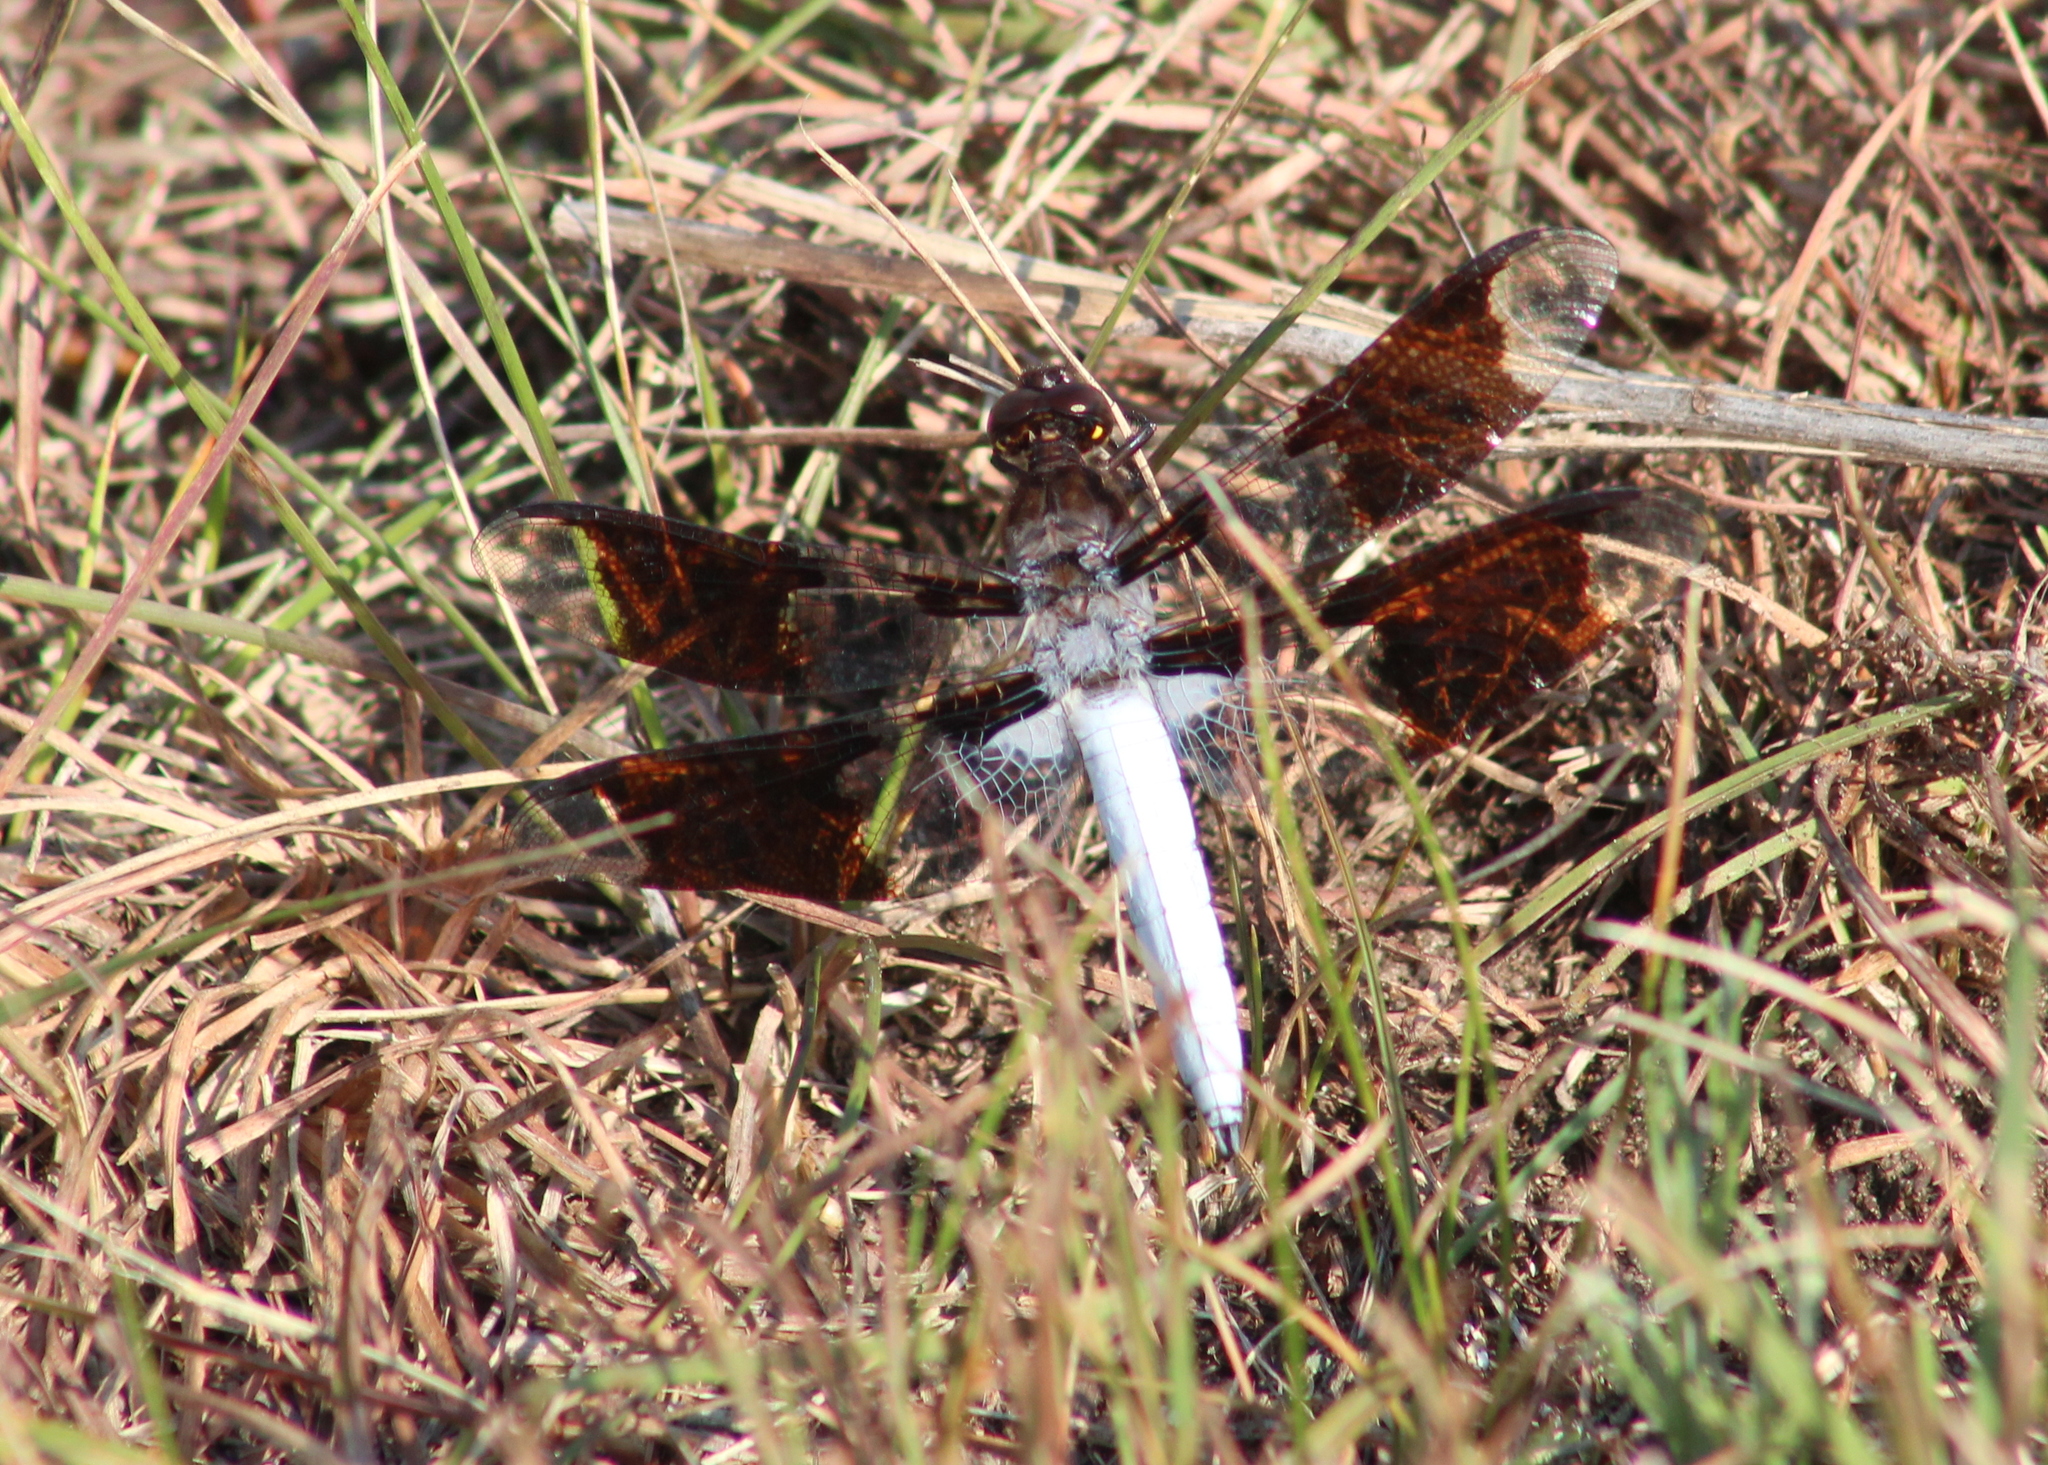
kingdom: Animalia
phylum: Arthropoda
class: Insecta
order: Odonata
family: Libellulidae
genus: Plathemis
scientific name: Plathemis lydia
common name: Common whitetail
